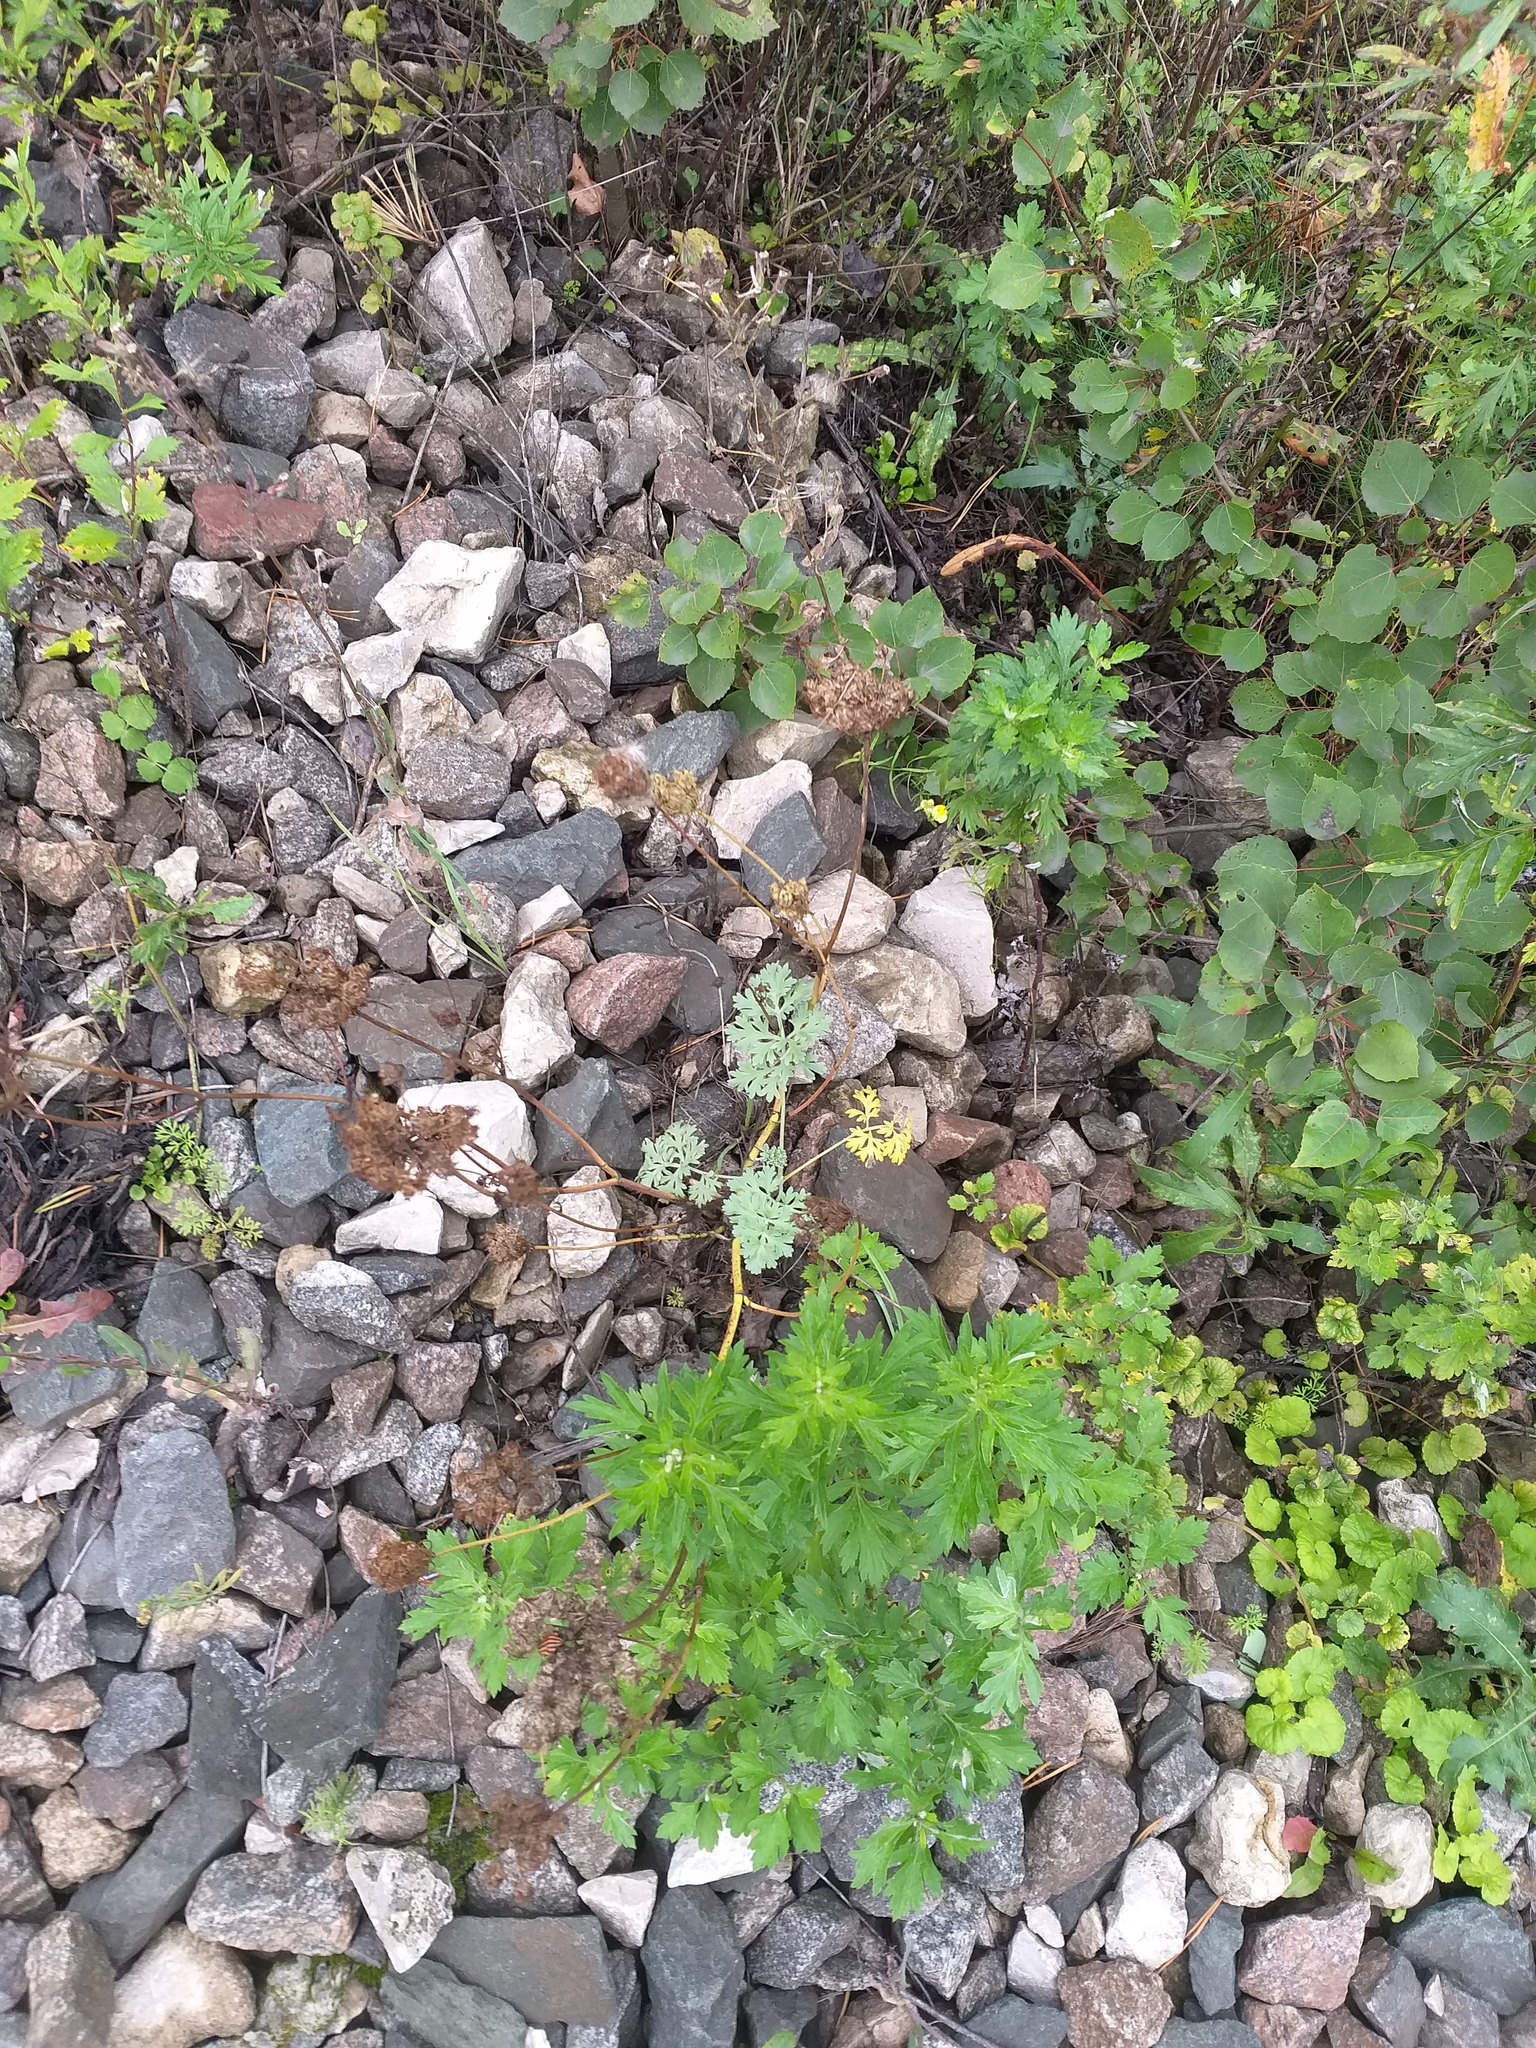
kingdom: Plantae
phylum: Tracheophyta
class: Magnoliopsida
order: Apiales
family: Apiaceae
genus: Daucus
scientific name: Daucus carota
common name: Wild carrot
